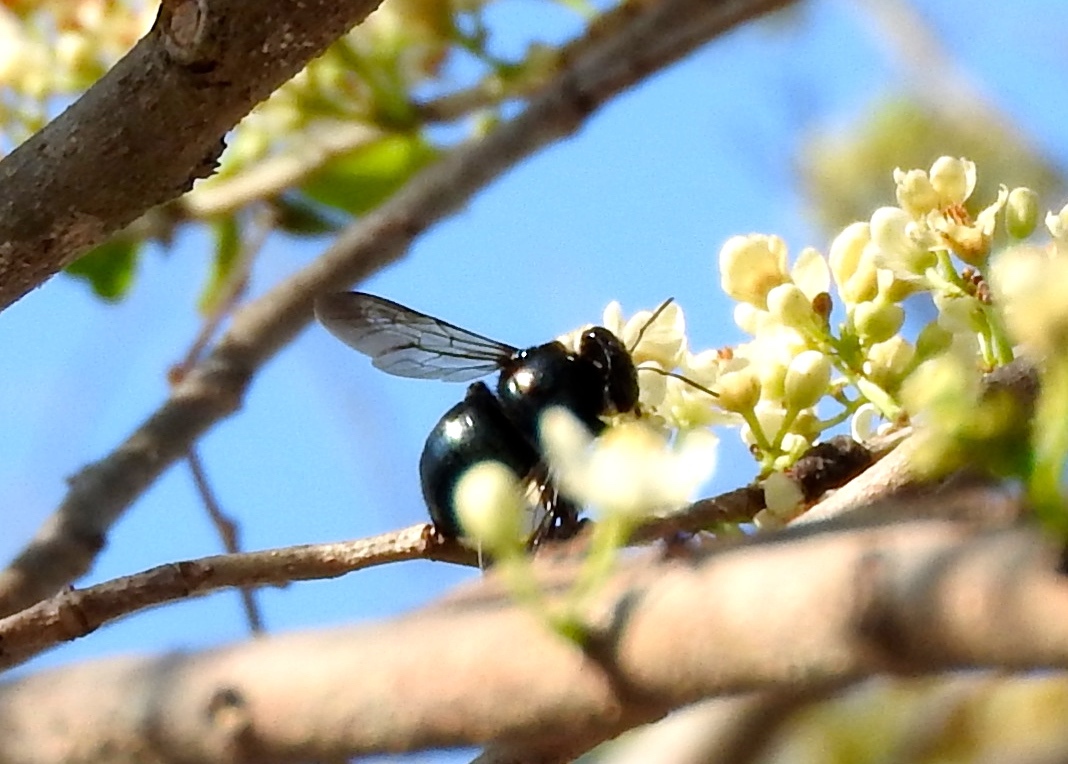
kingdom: Animalia
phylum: Arthropoda
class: Insecta
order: Hymenoptera
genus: Schonnherria
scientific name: Schonnherria
